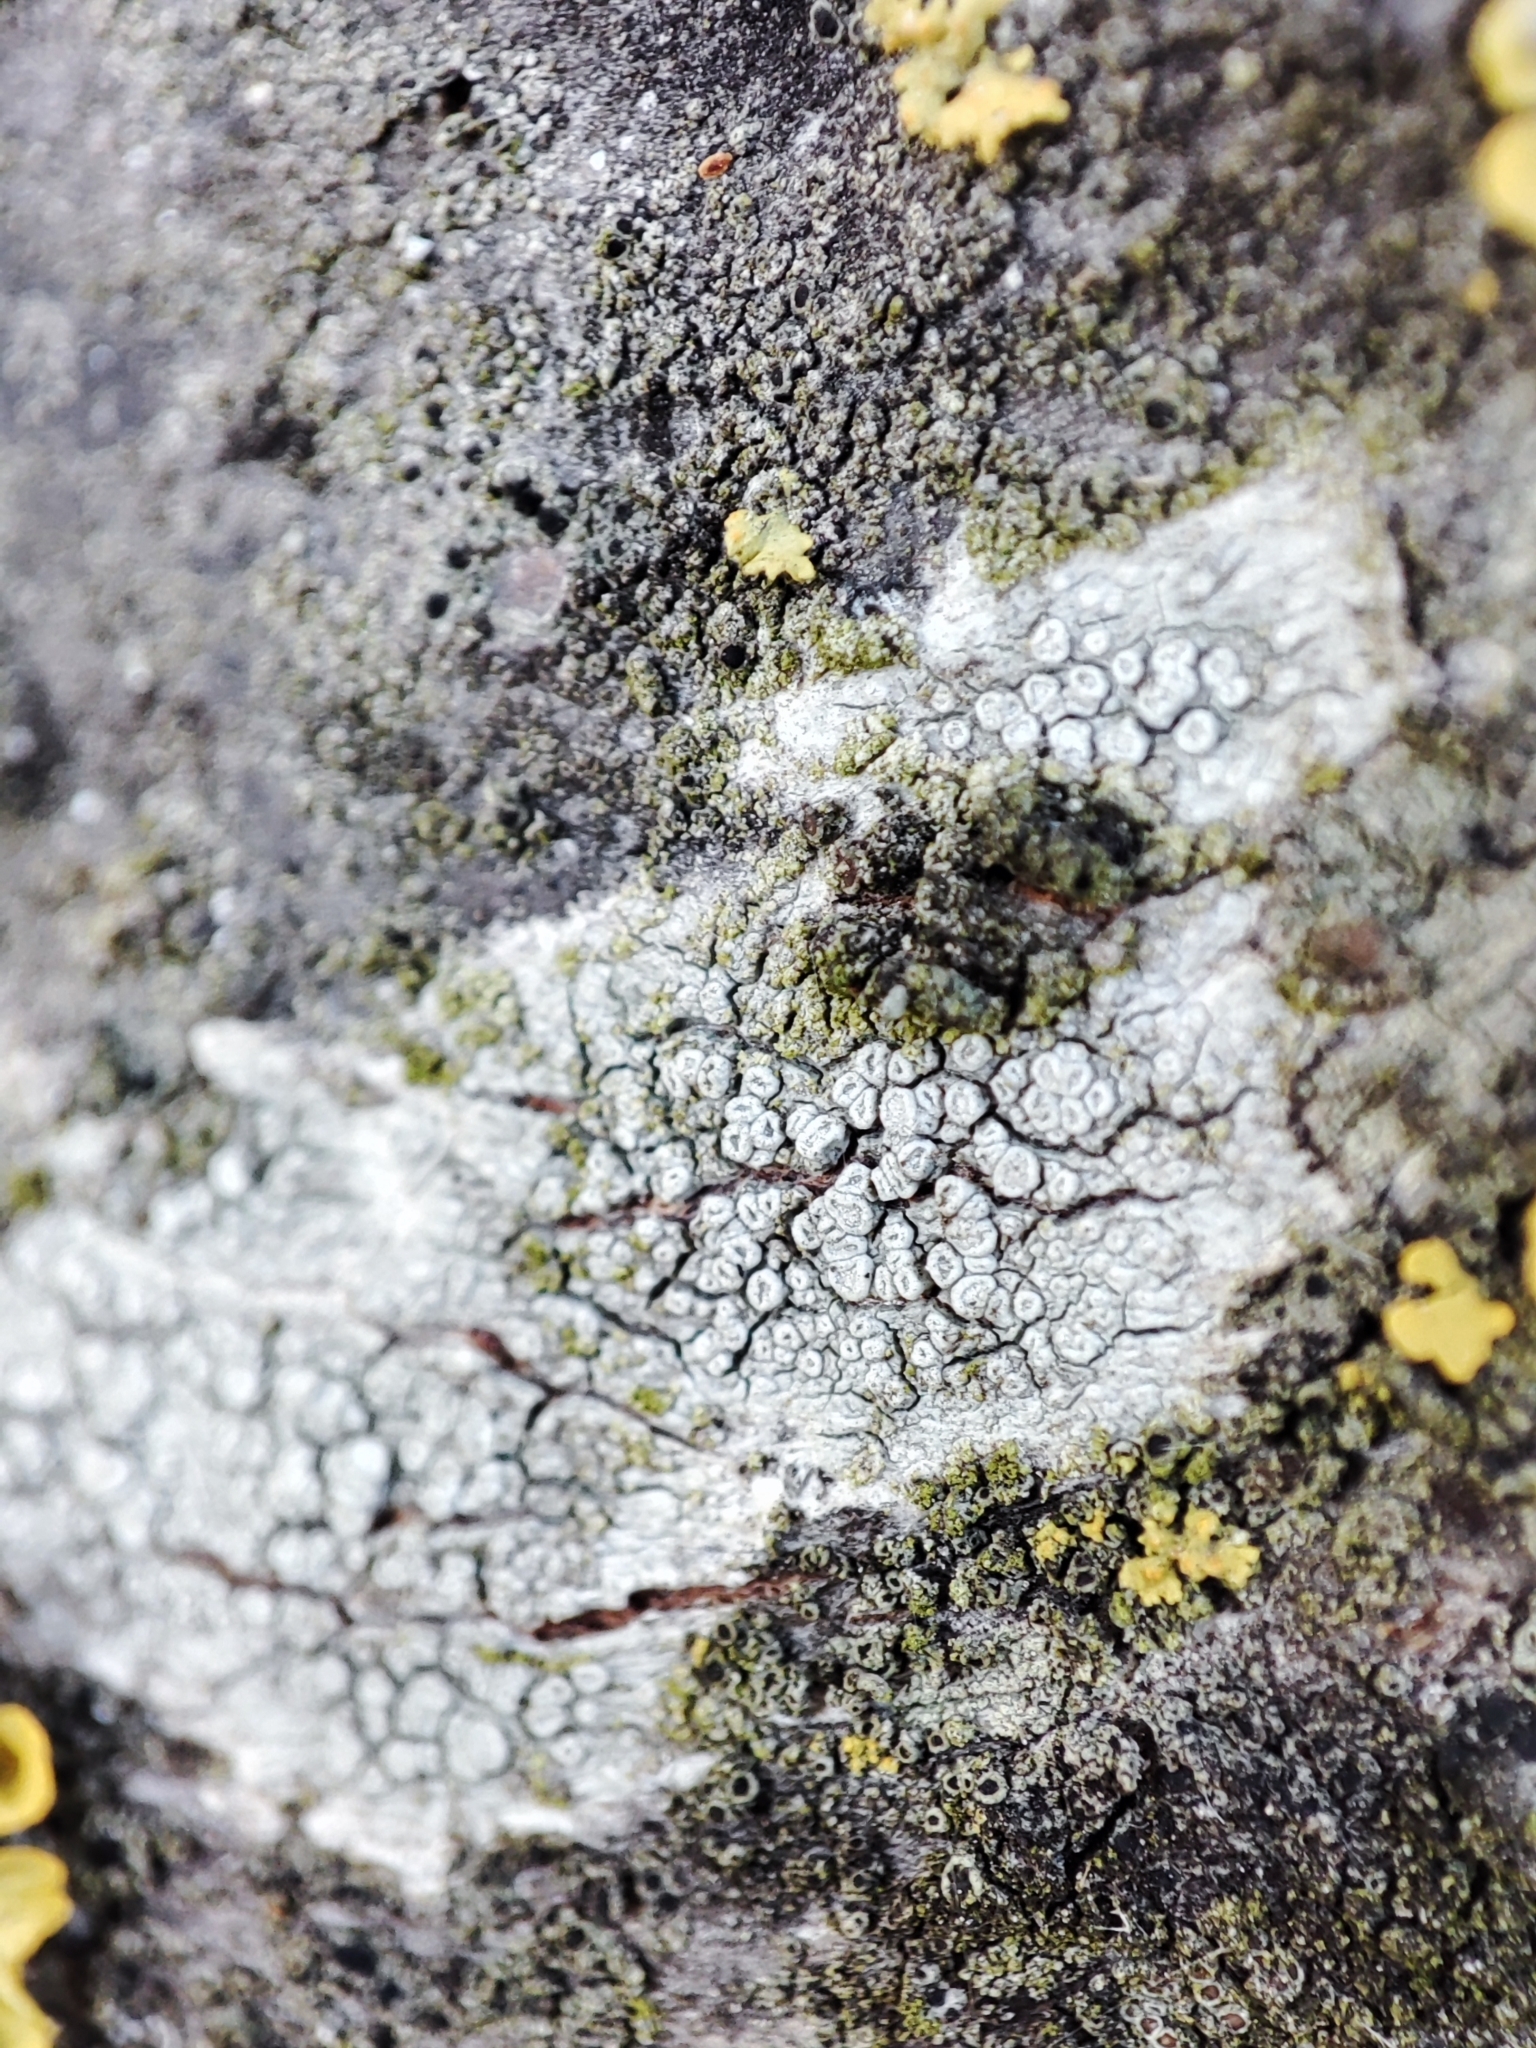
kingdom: Fungi
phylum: Ascomycota
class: Lecanoromycetes
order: Lecanorales
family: Lecanoraceae
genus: Glaucomaria
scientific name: Glaucomaria carpinea
